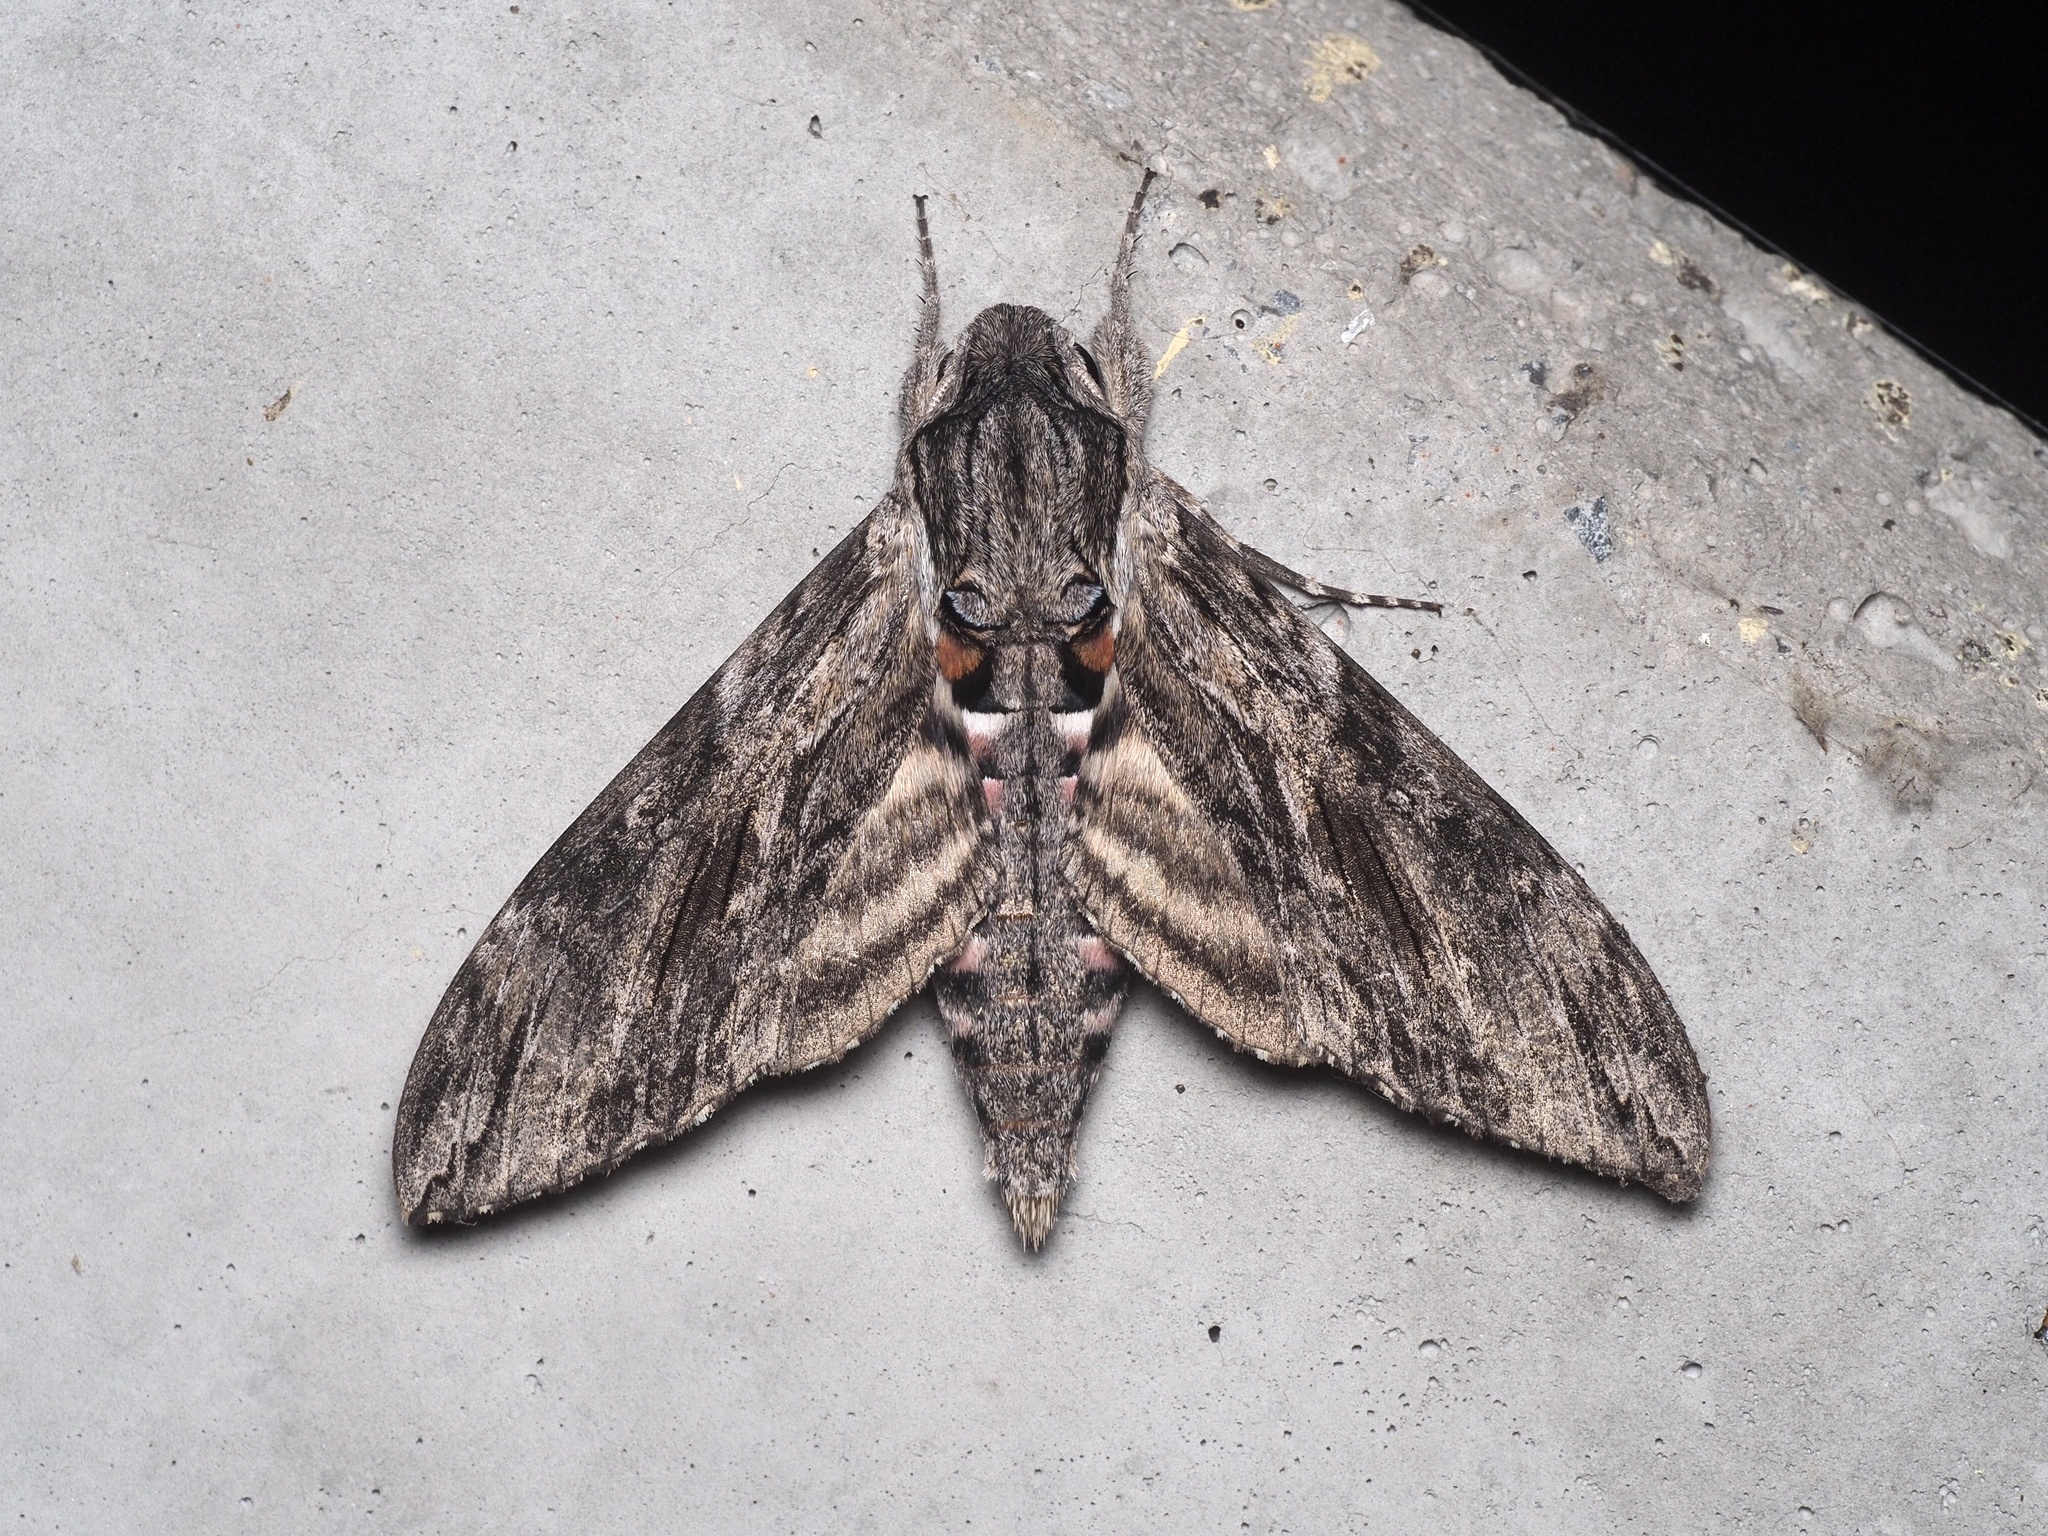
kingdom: Animalia
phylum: Arthropoda
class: Insecta
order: Lepidoptera
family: Sphingidae
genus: Agrius
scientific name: Agrius convolvuli
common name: Convolvulus hawkmoth
